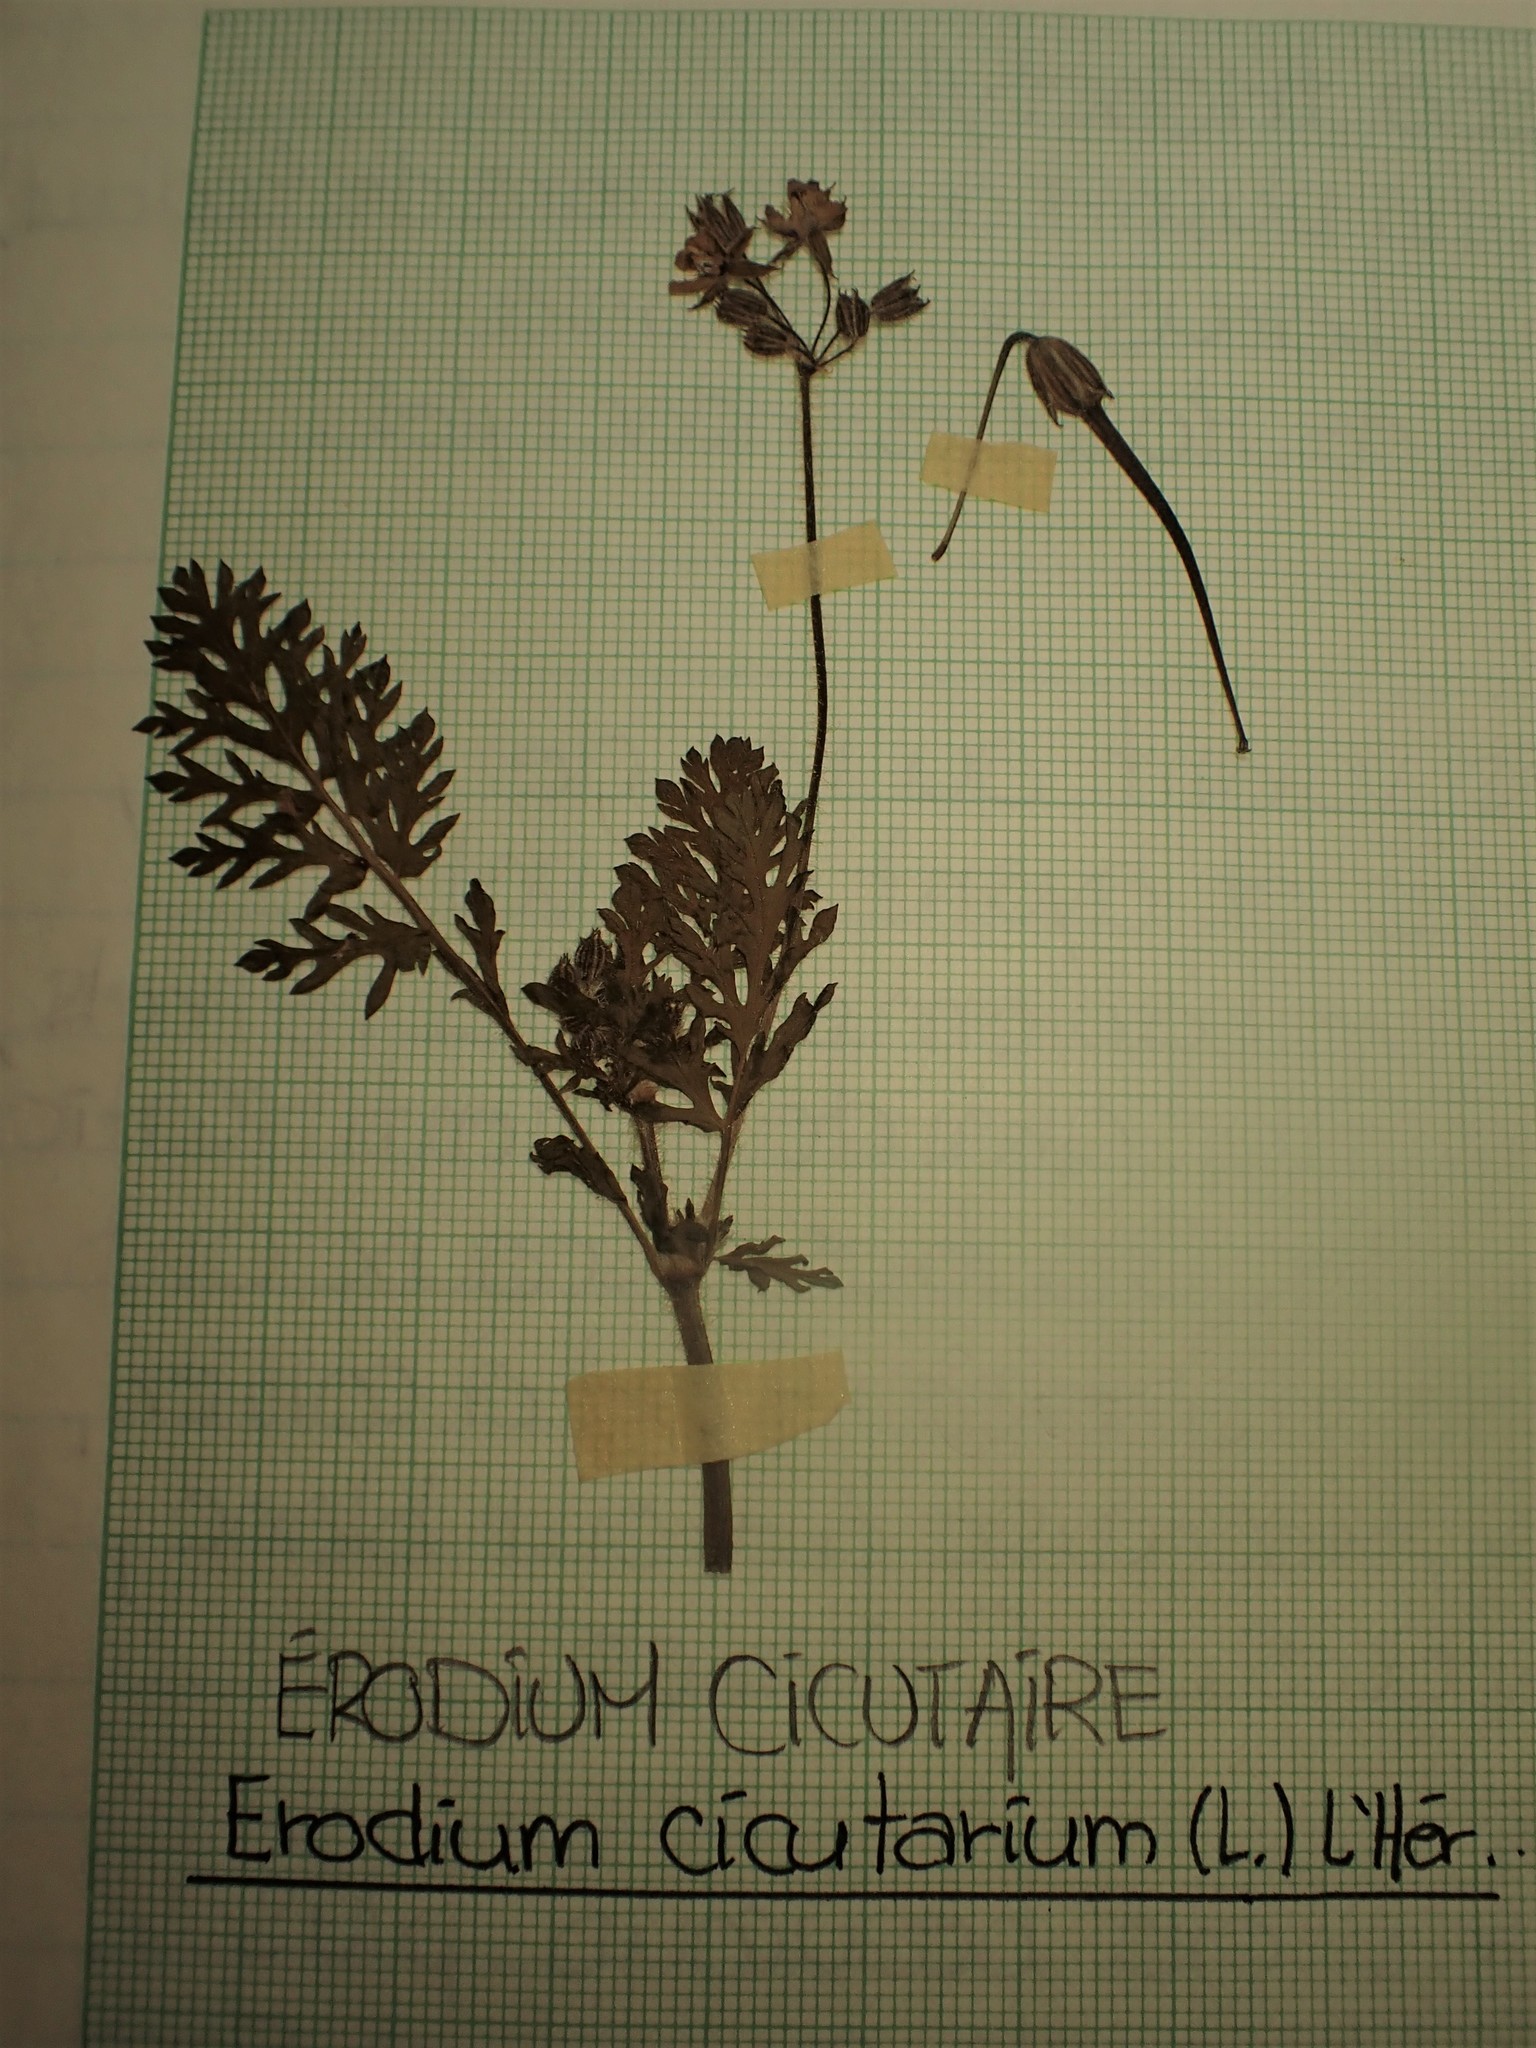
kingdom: Plantae
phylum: Tracheophyta
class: Magnoliopsida
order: Geraniales
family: Geraniaceae
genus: Erodium
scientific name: Erodium cicutarium
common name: Common stork's-bill
